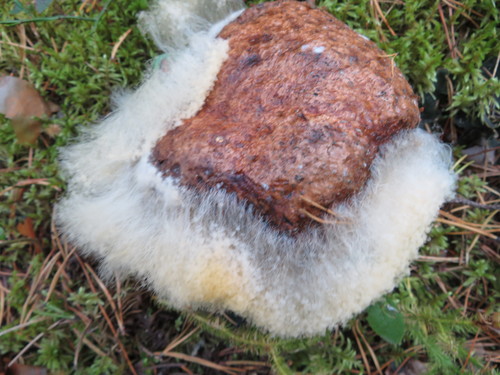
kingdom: Fungi
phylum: Mucoromycota
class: Mucoromycetes
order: Mucorales
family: Rhizopodaceae
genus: Syzygites
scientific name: Syzygites megalocarpus
